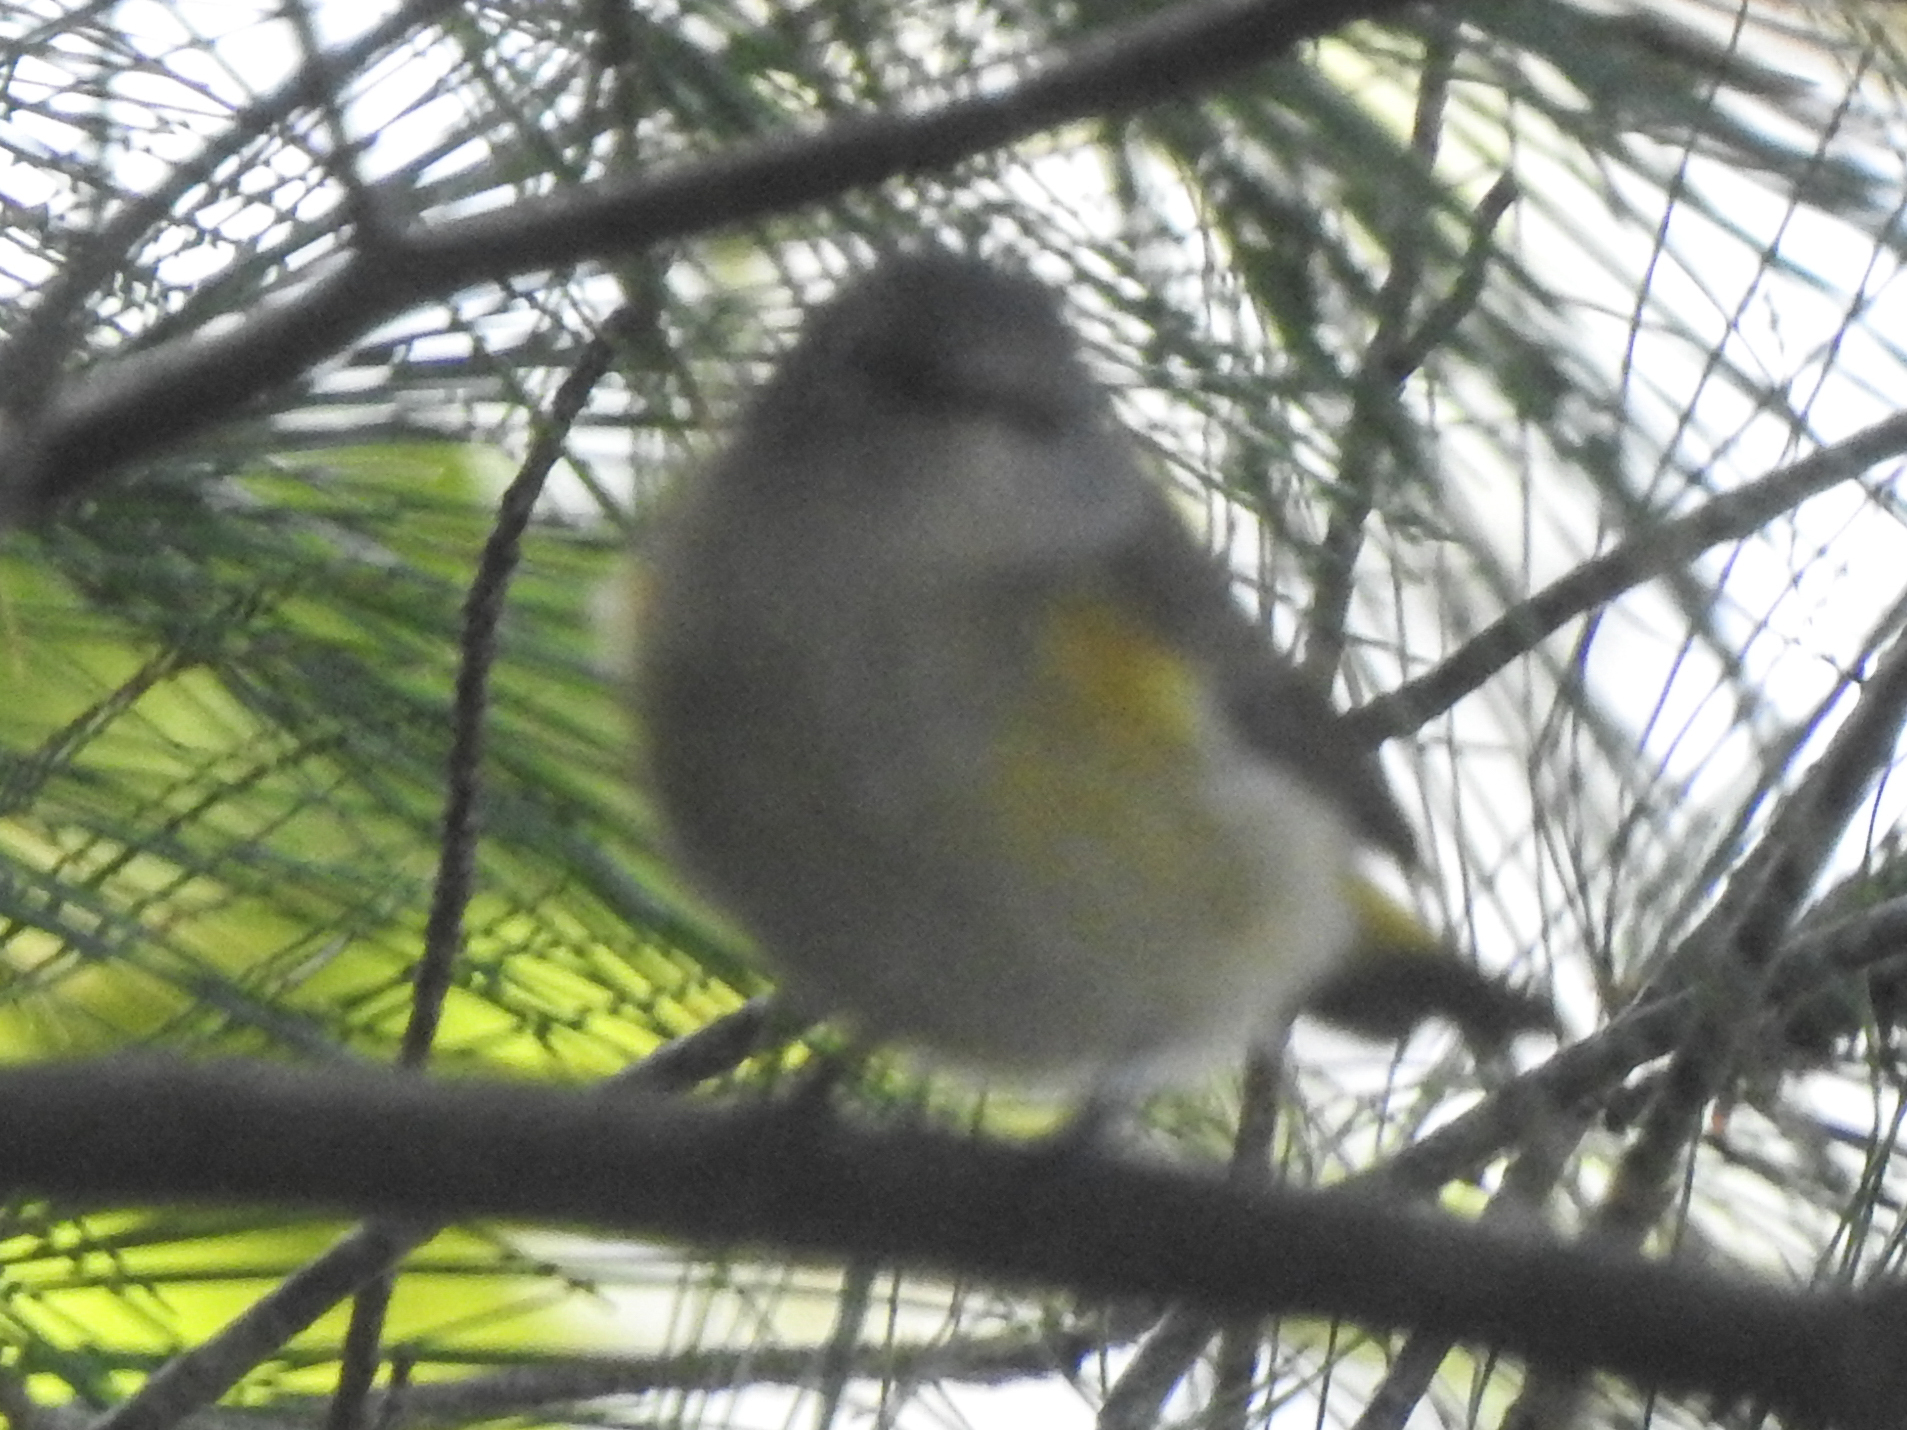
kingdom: Animalia
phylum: Chordata
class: Aves
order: Passeriformes
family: Parulidae
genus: Setophaga
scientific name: Setophaga ruticilla
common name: American redstart
